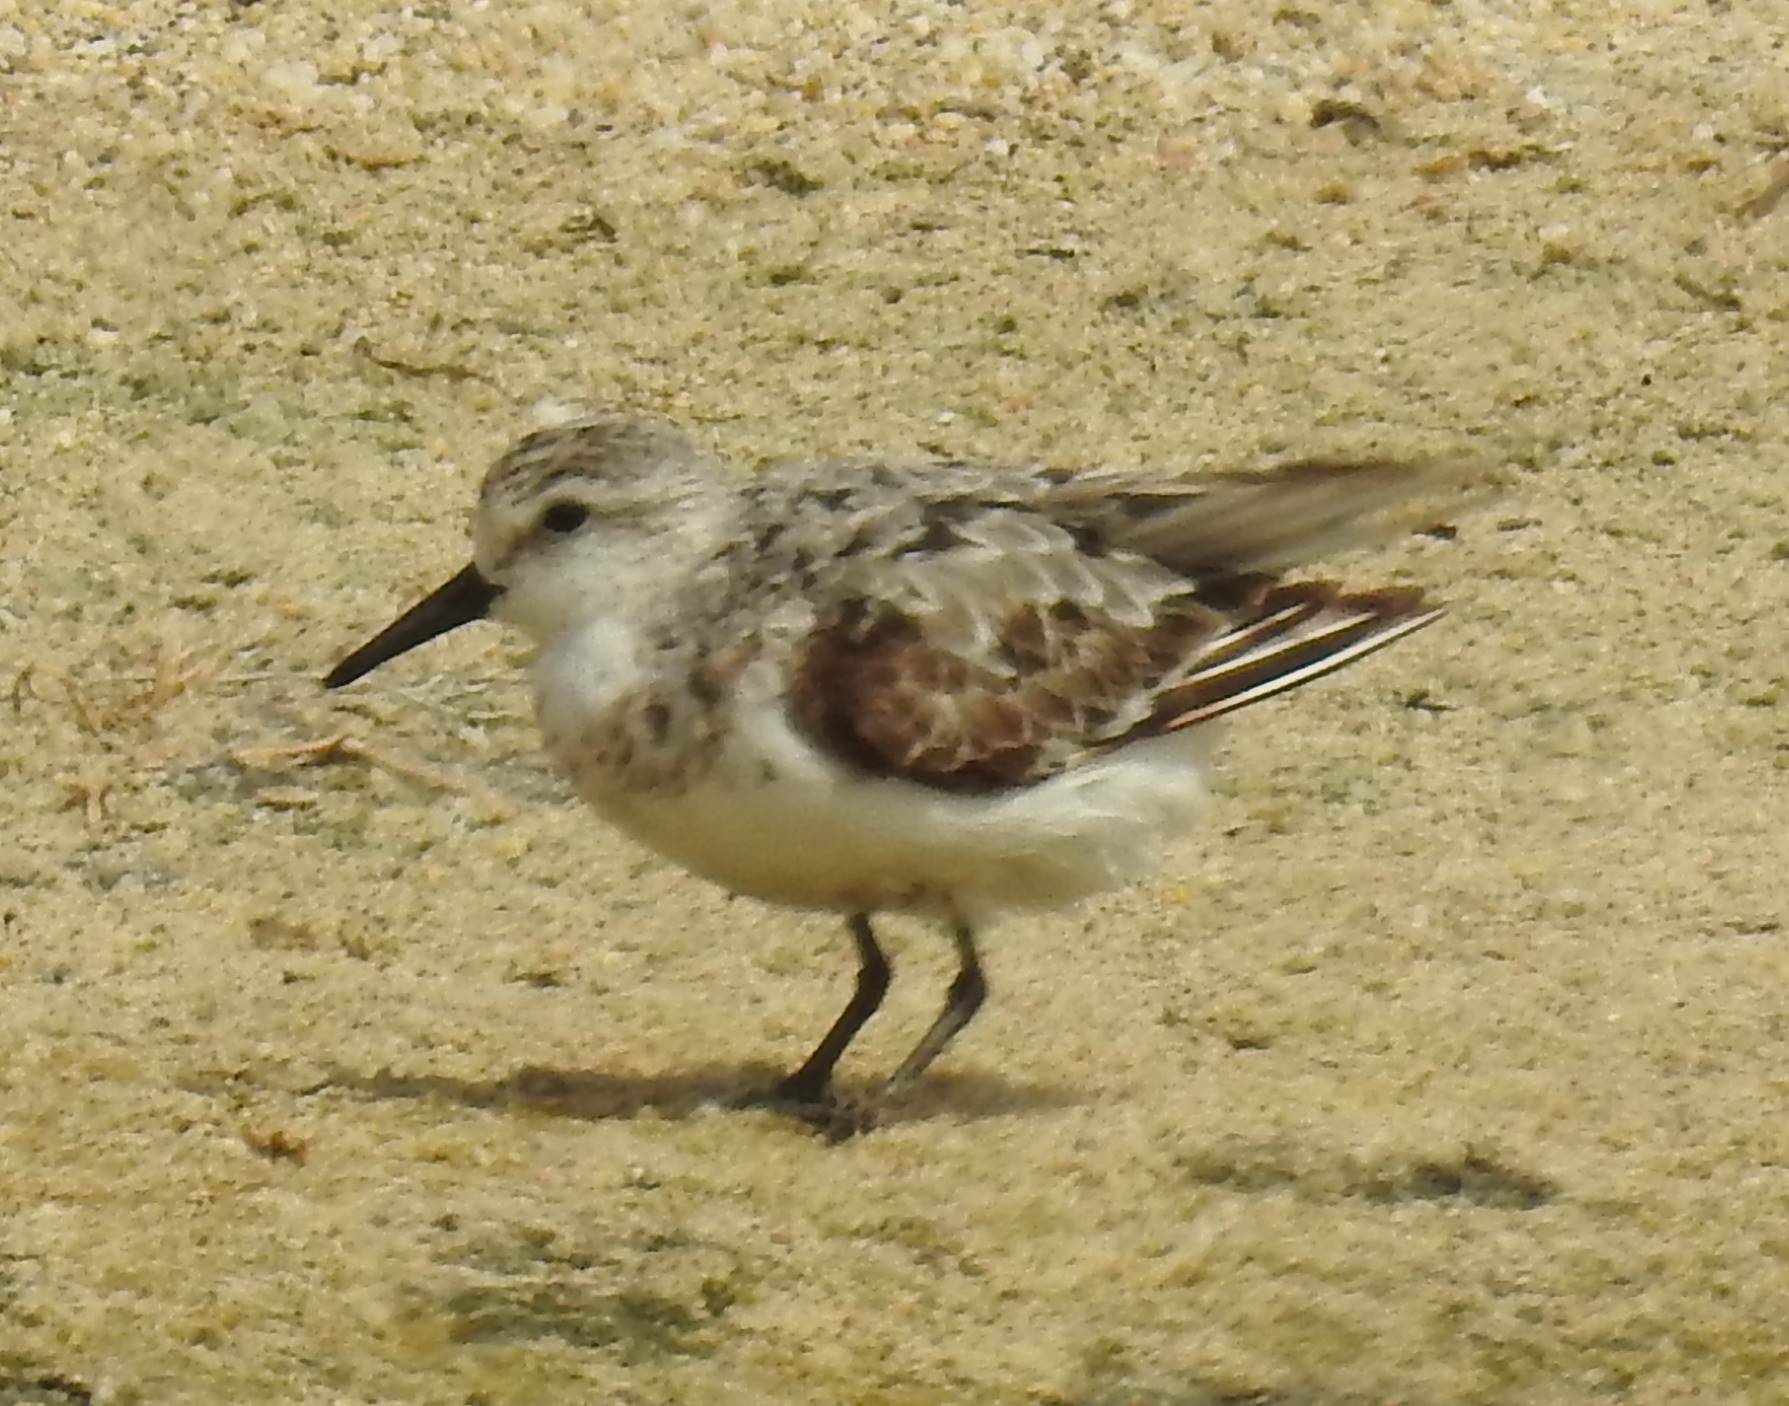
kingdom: Animalia
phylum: Chordata
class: Aves
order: Charadriiformes
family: Scolopacidae
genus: Calidris
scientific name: Calidris alba
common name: Sanderling
